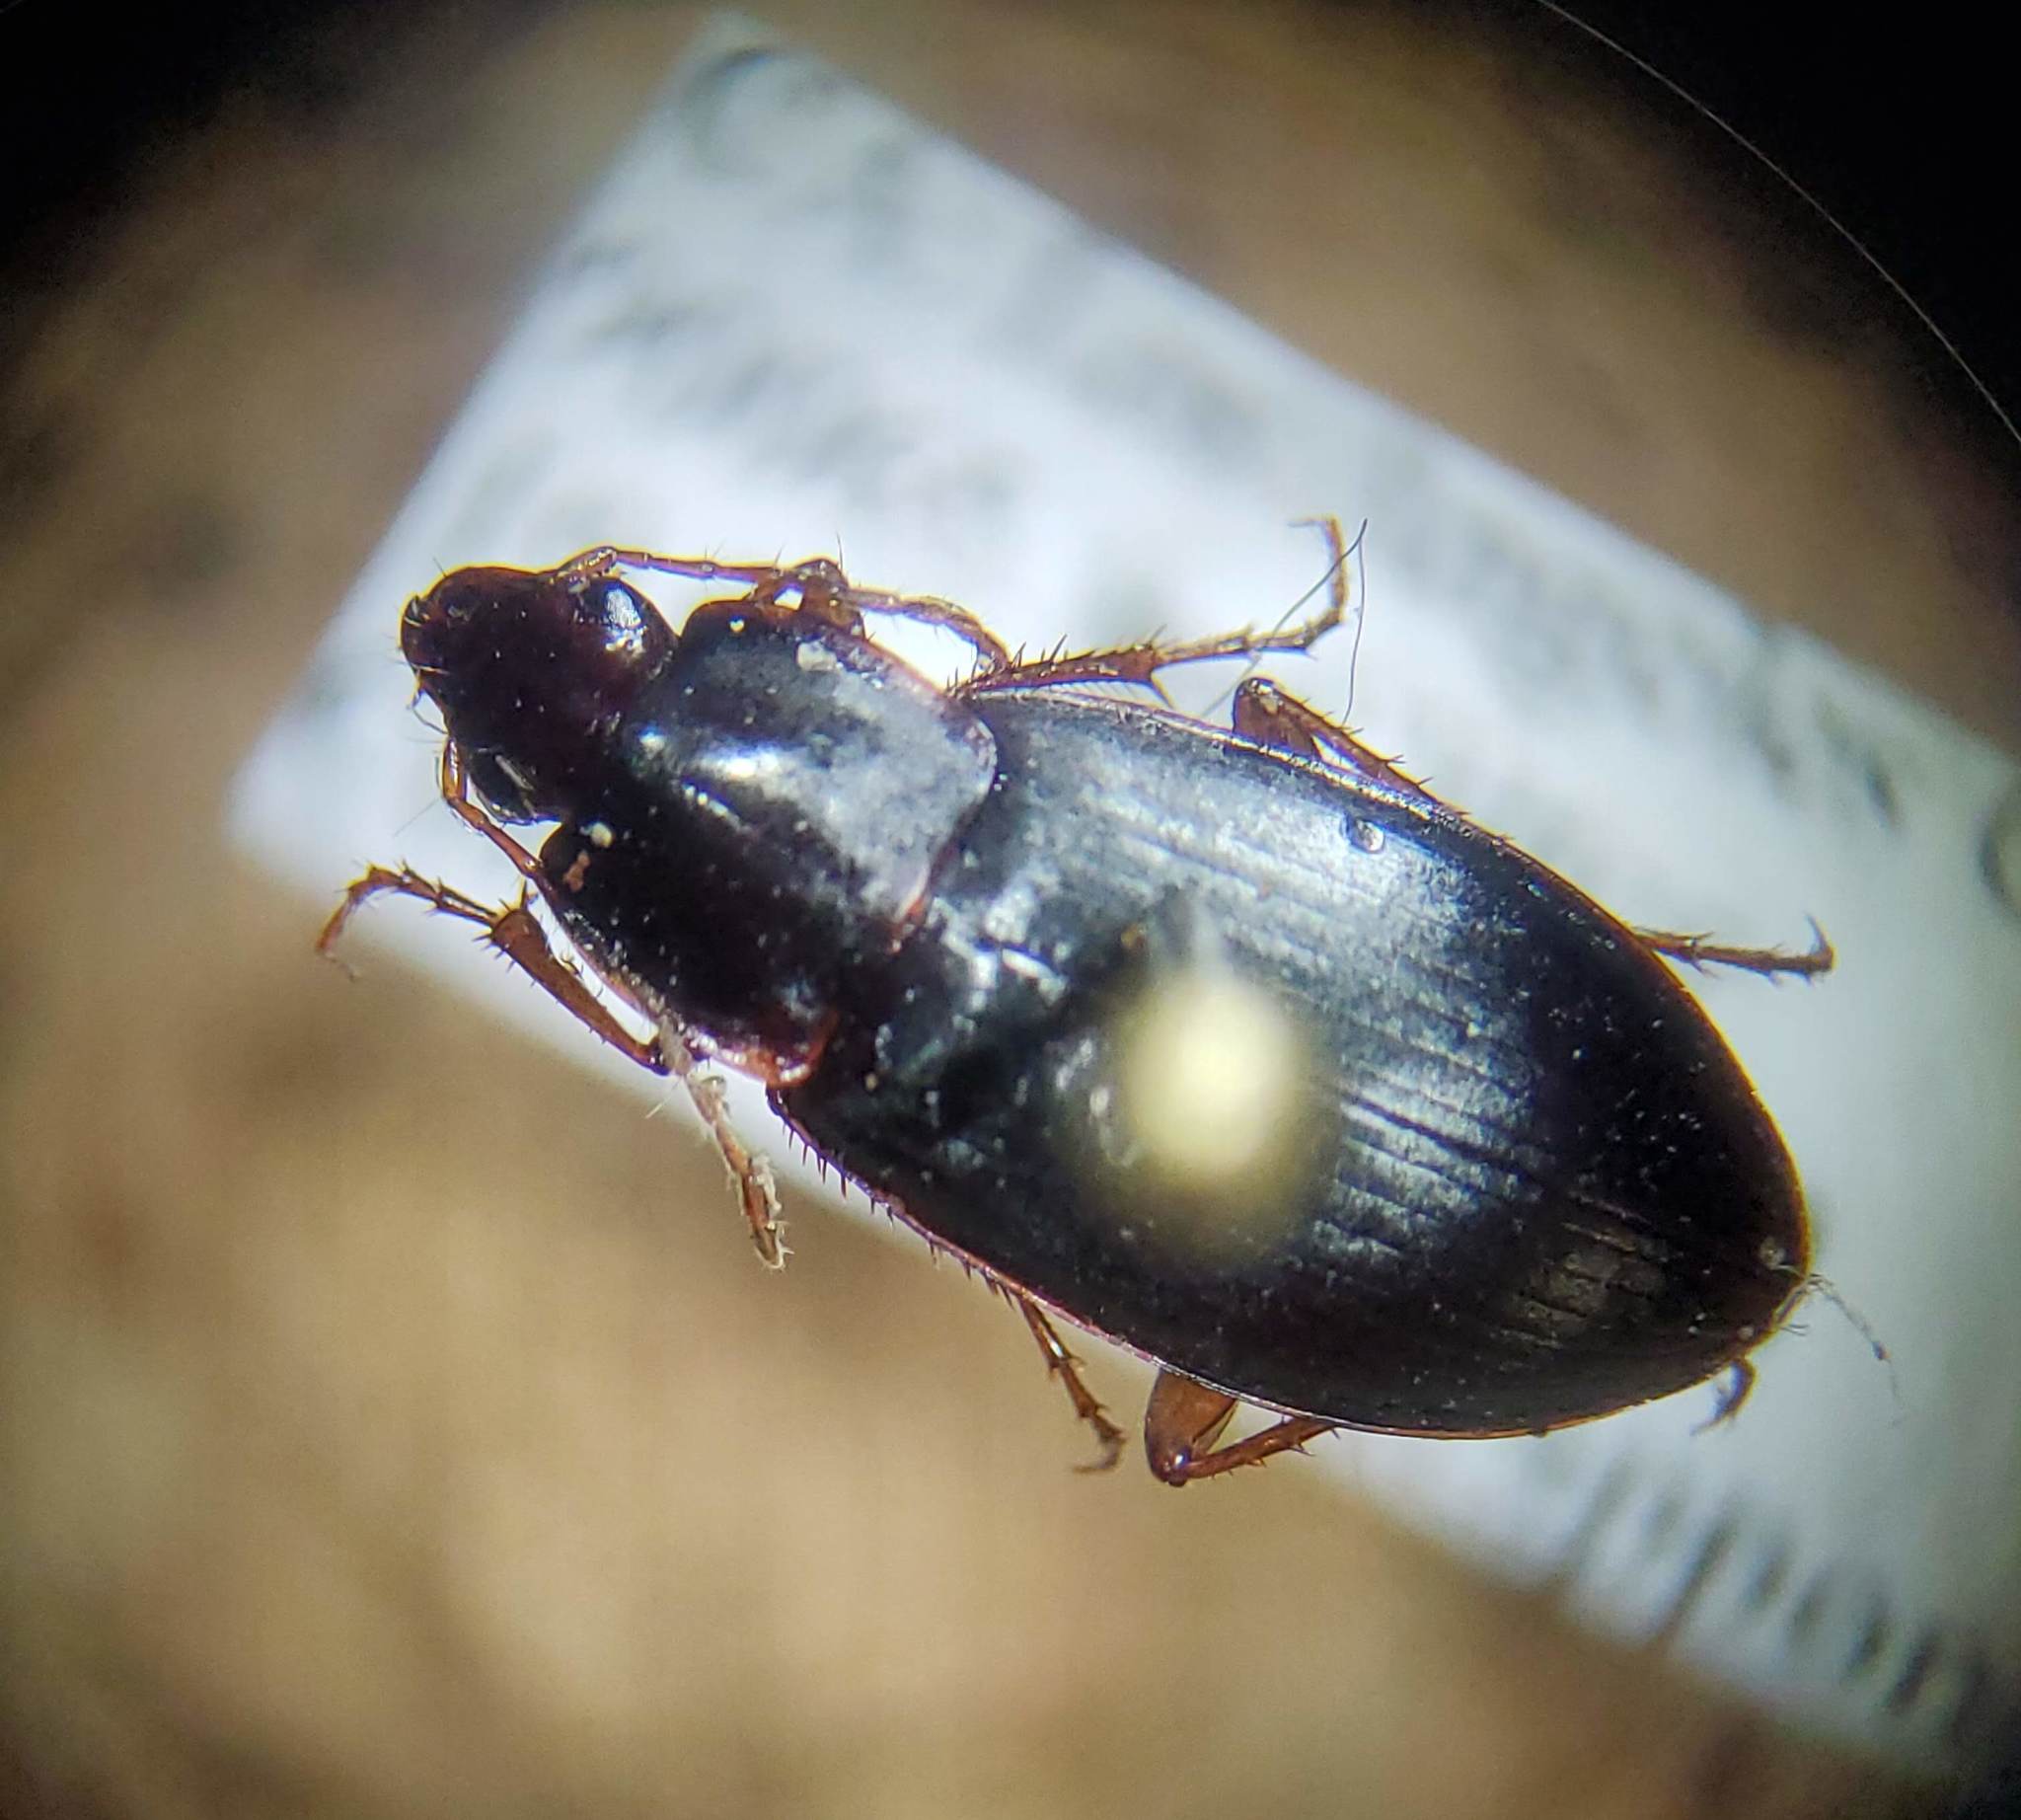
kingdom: Animalia
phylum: Arthropoda
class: Insecta
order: Coleoptera
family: Carabidae
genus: Calathus
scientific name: Calathus ruficollis
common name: Red-collared harp ground beetle
